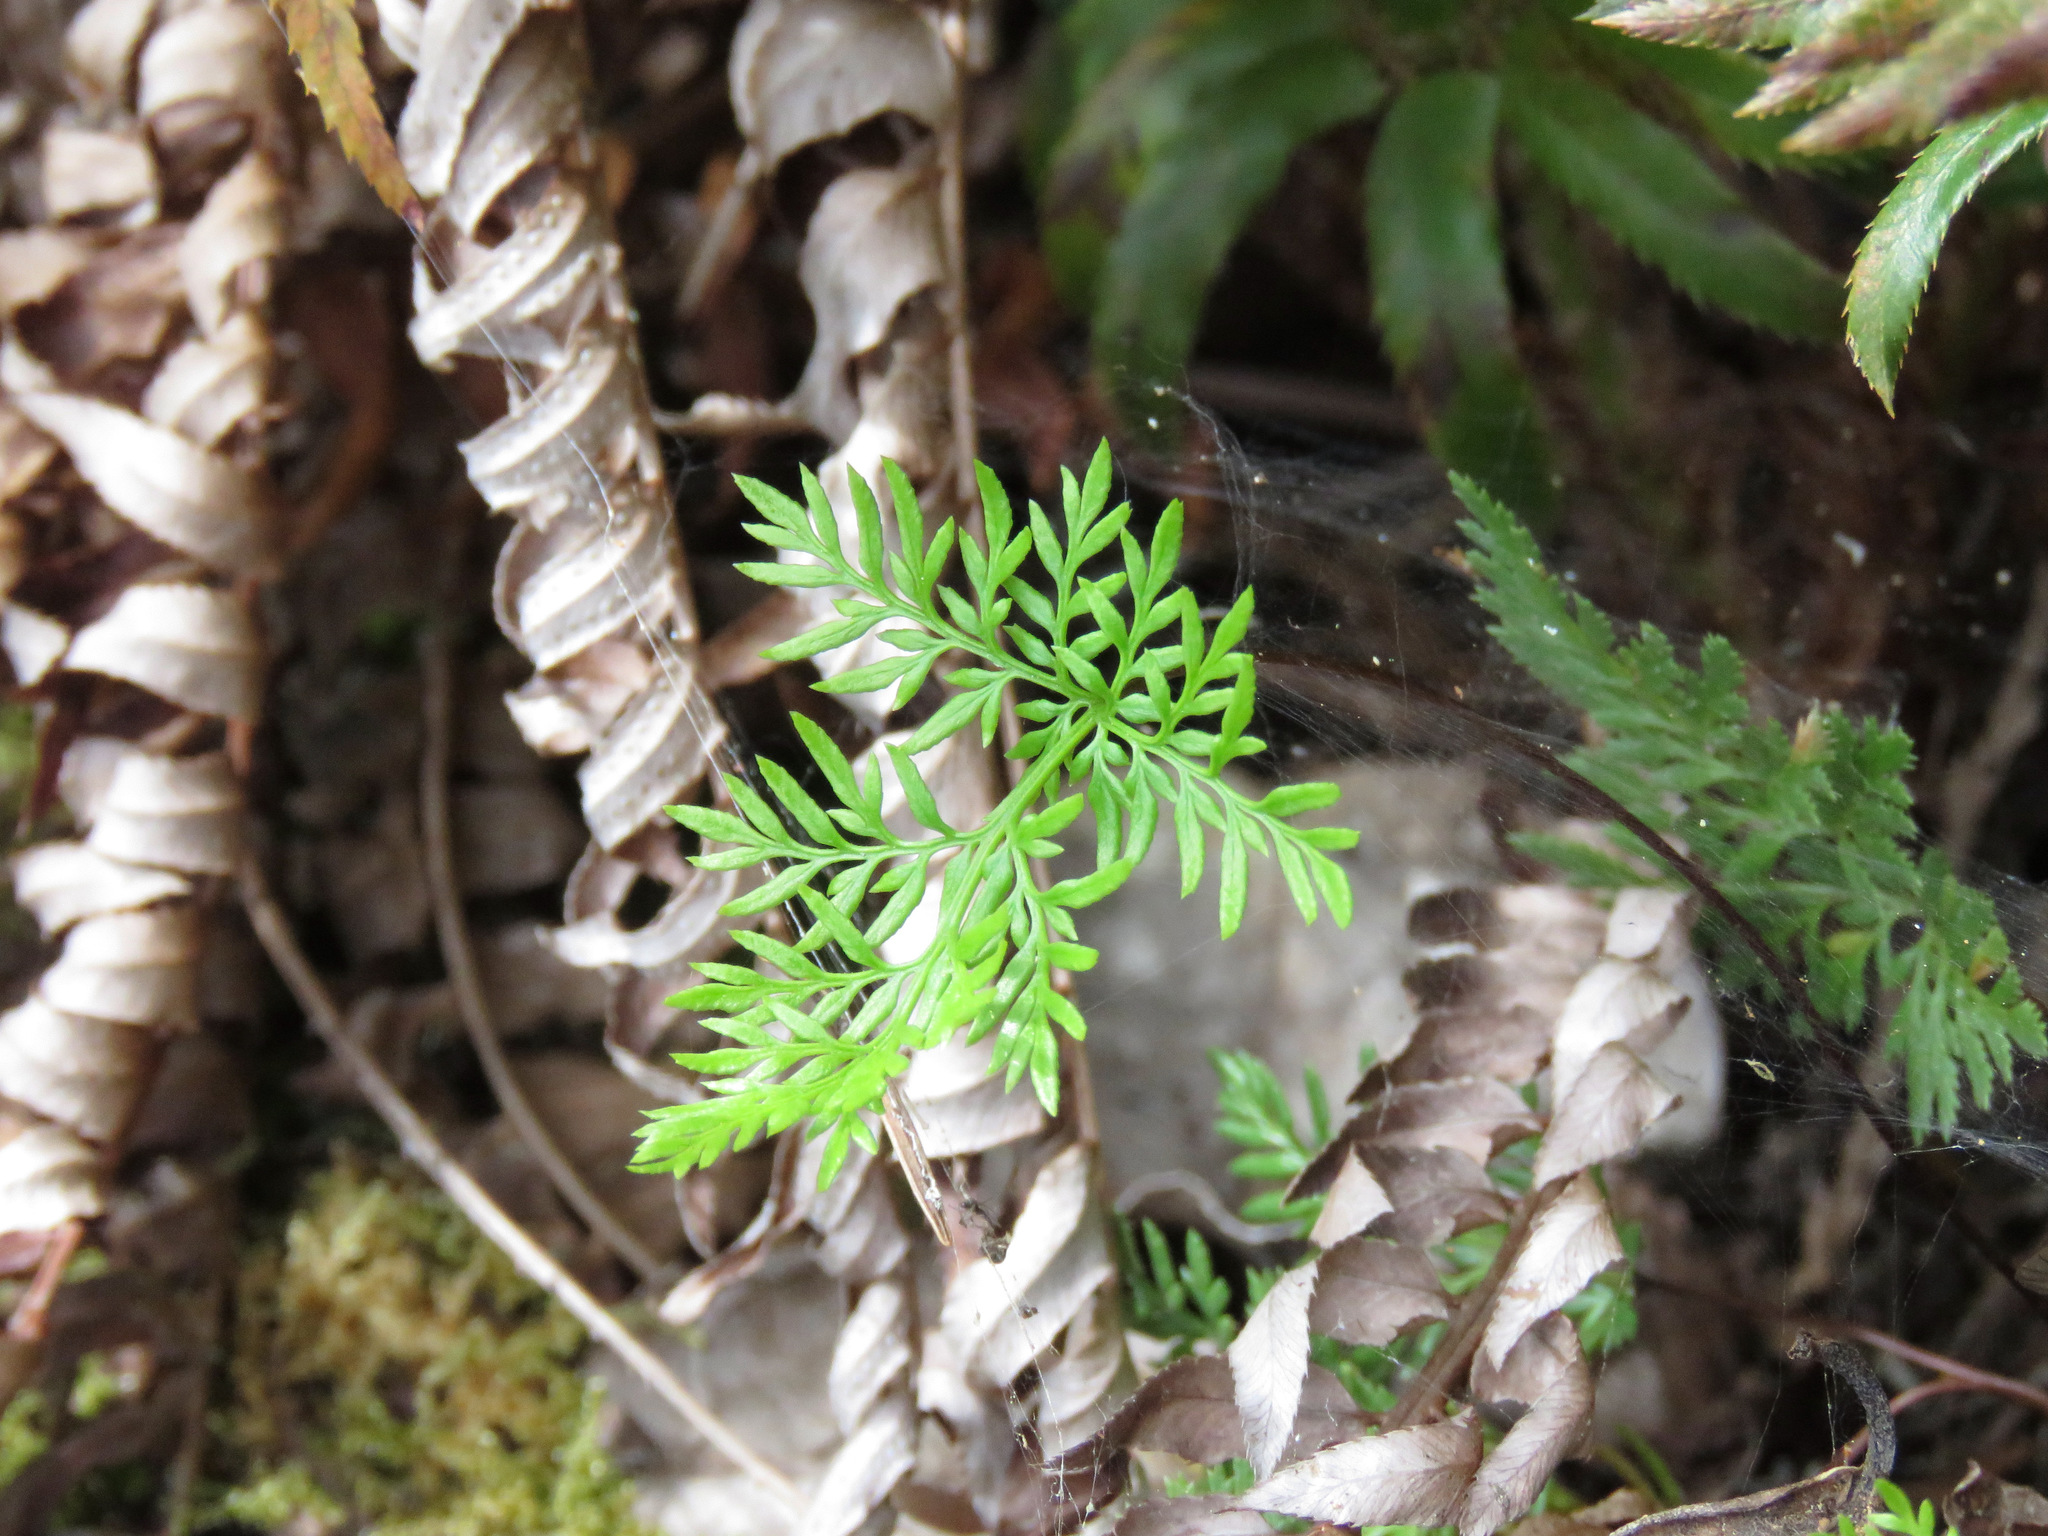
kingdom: Plantae
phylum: Tracheophyta
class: Polypodiopsida
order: Polypodiales
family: Pteridaceae
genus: Aspidotis
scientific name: Aspidotis densa
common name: Indian's dream
